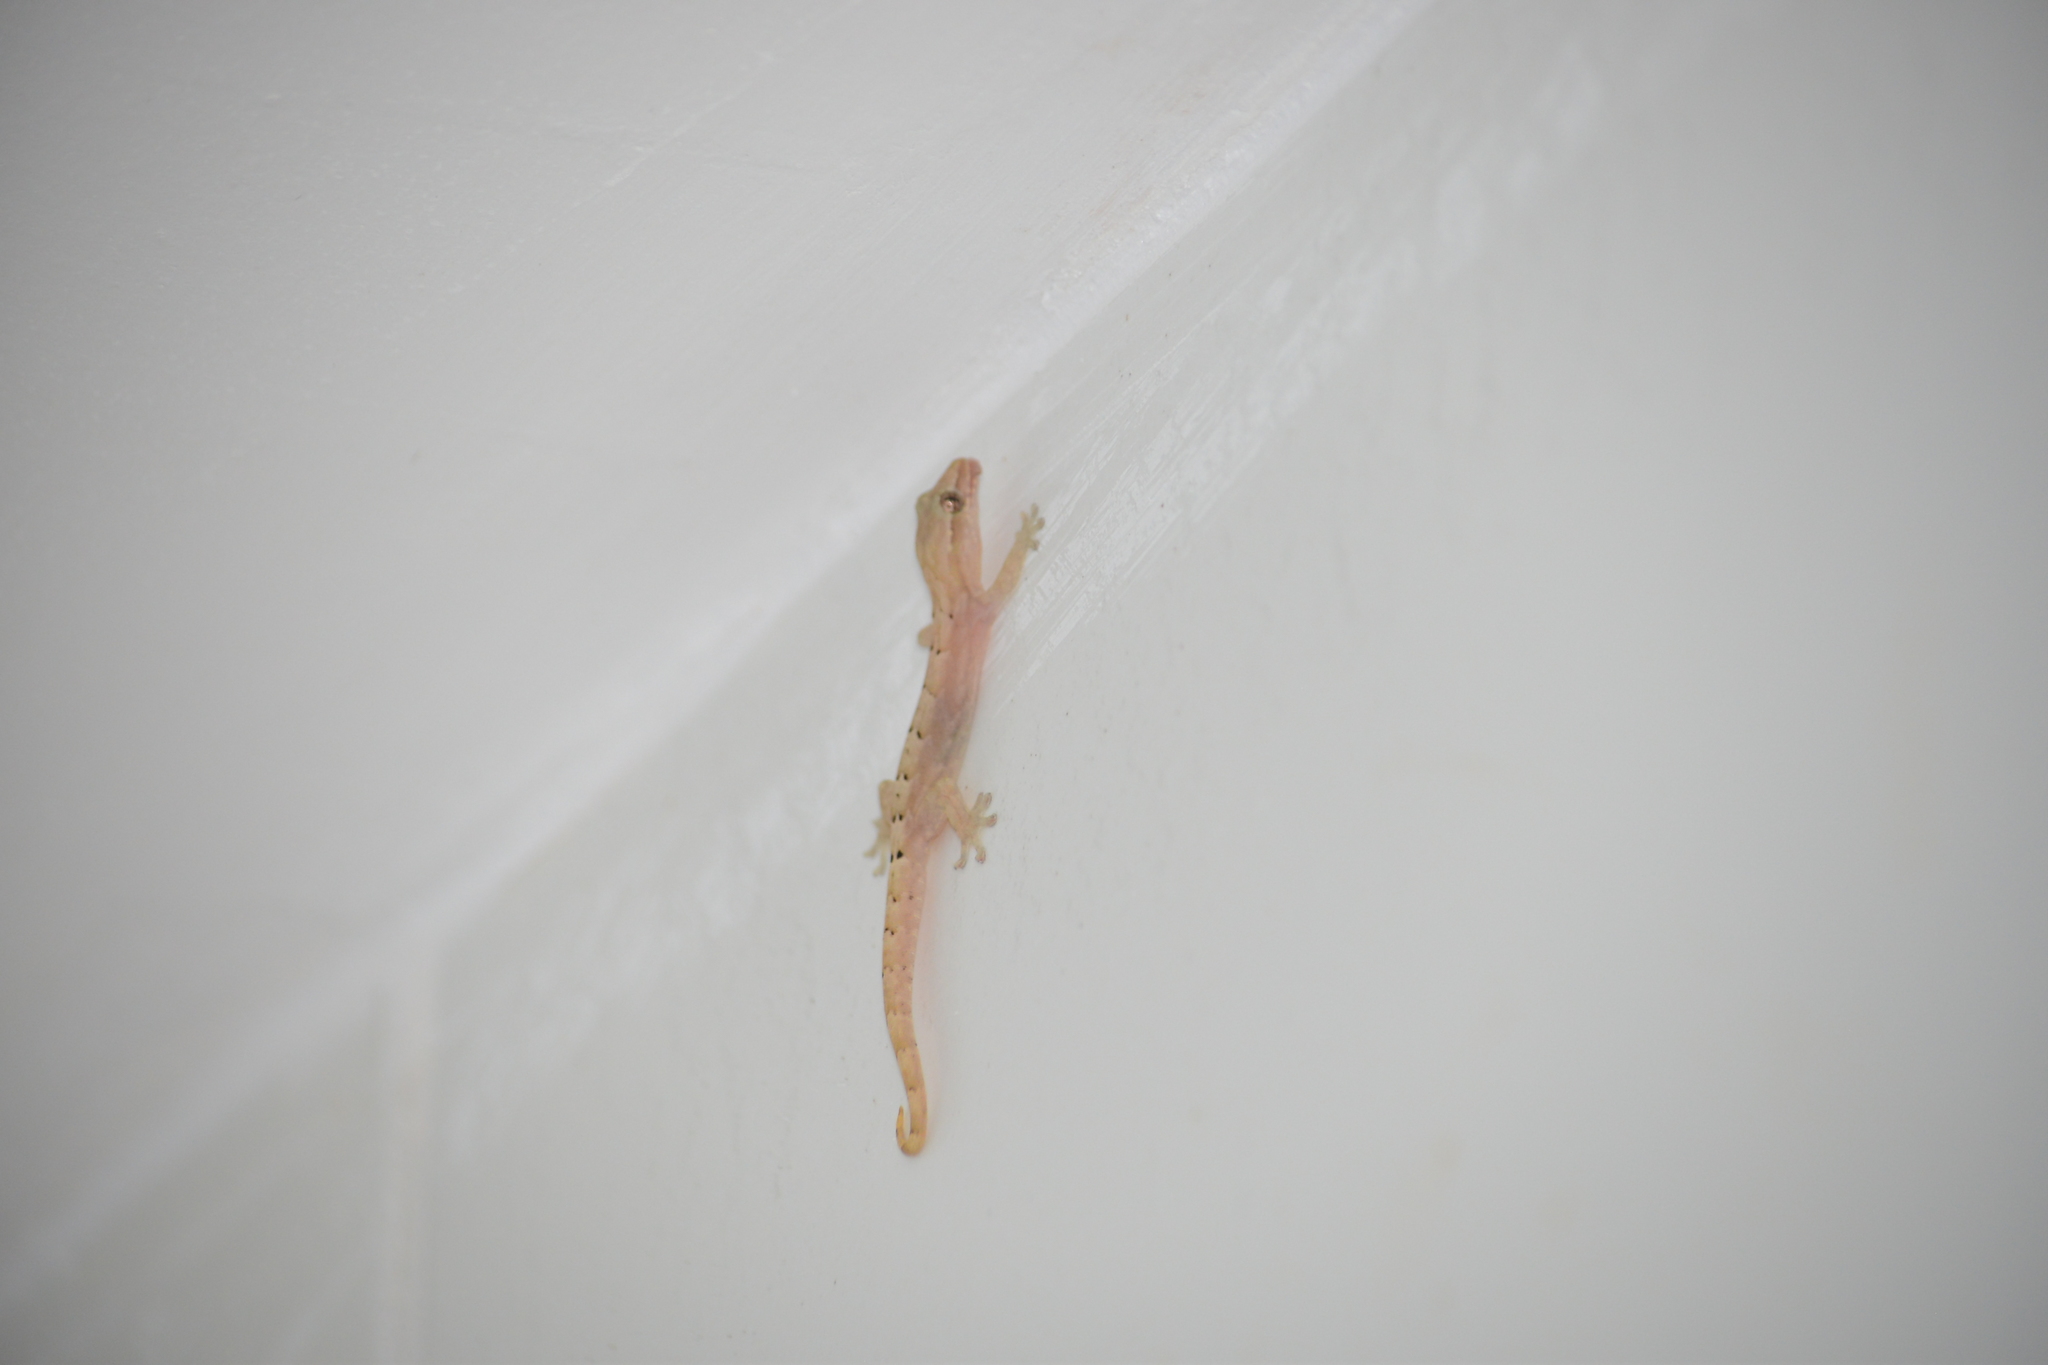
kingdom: Animalia
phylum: Chordata
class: Squamata
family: Gekkonidae
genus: Lepidodactylus
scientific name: Lepidodactylus lugubris
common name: Mourning gecko
